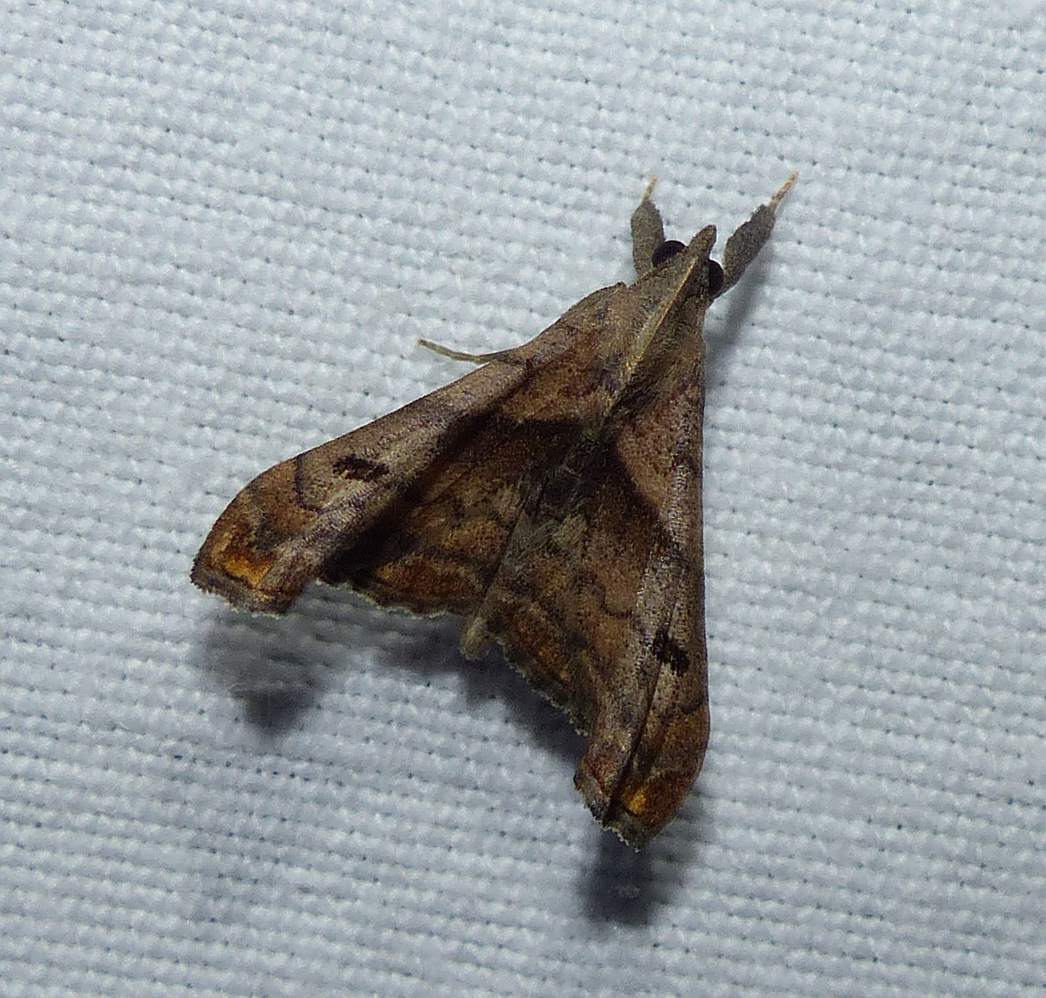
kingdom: Animalia
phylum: Arthropoda
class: Insecta
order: Lepidoptera
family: Erebidae
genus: Palthis
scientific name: Palthis angulalis
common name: Dark-spotted palthis moth
